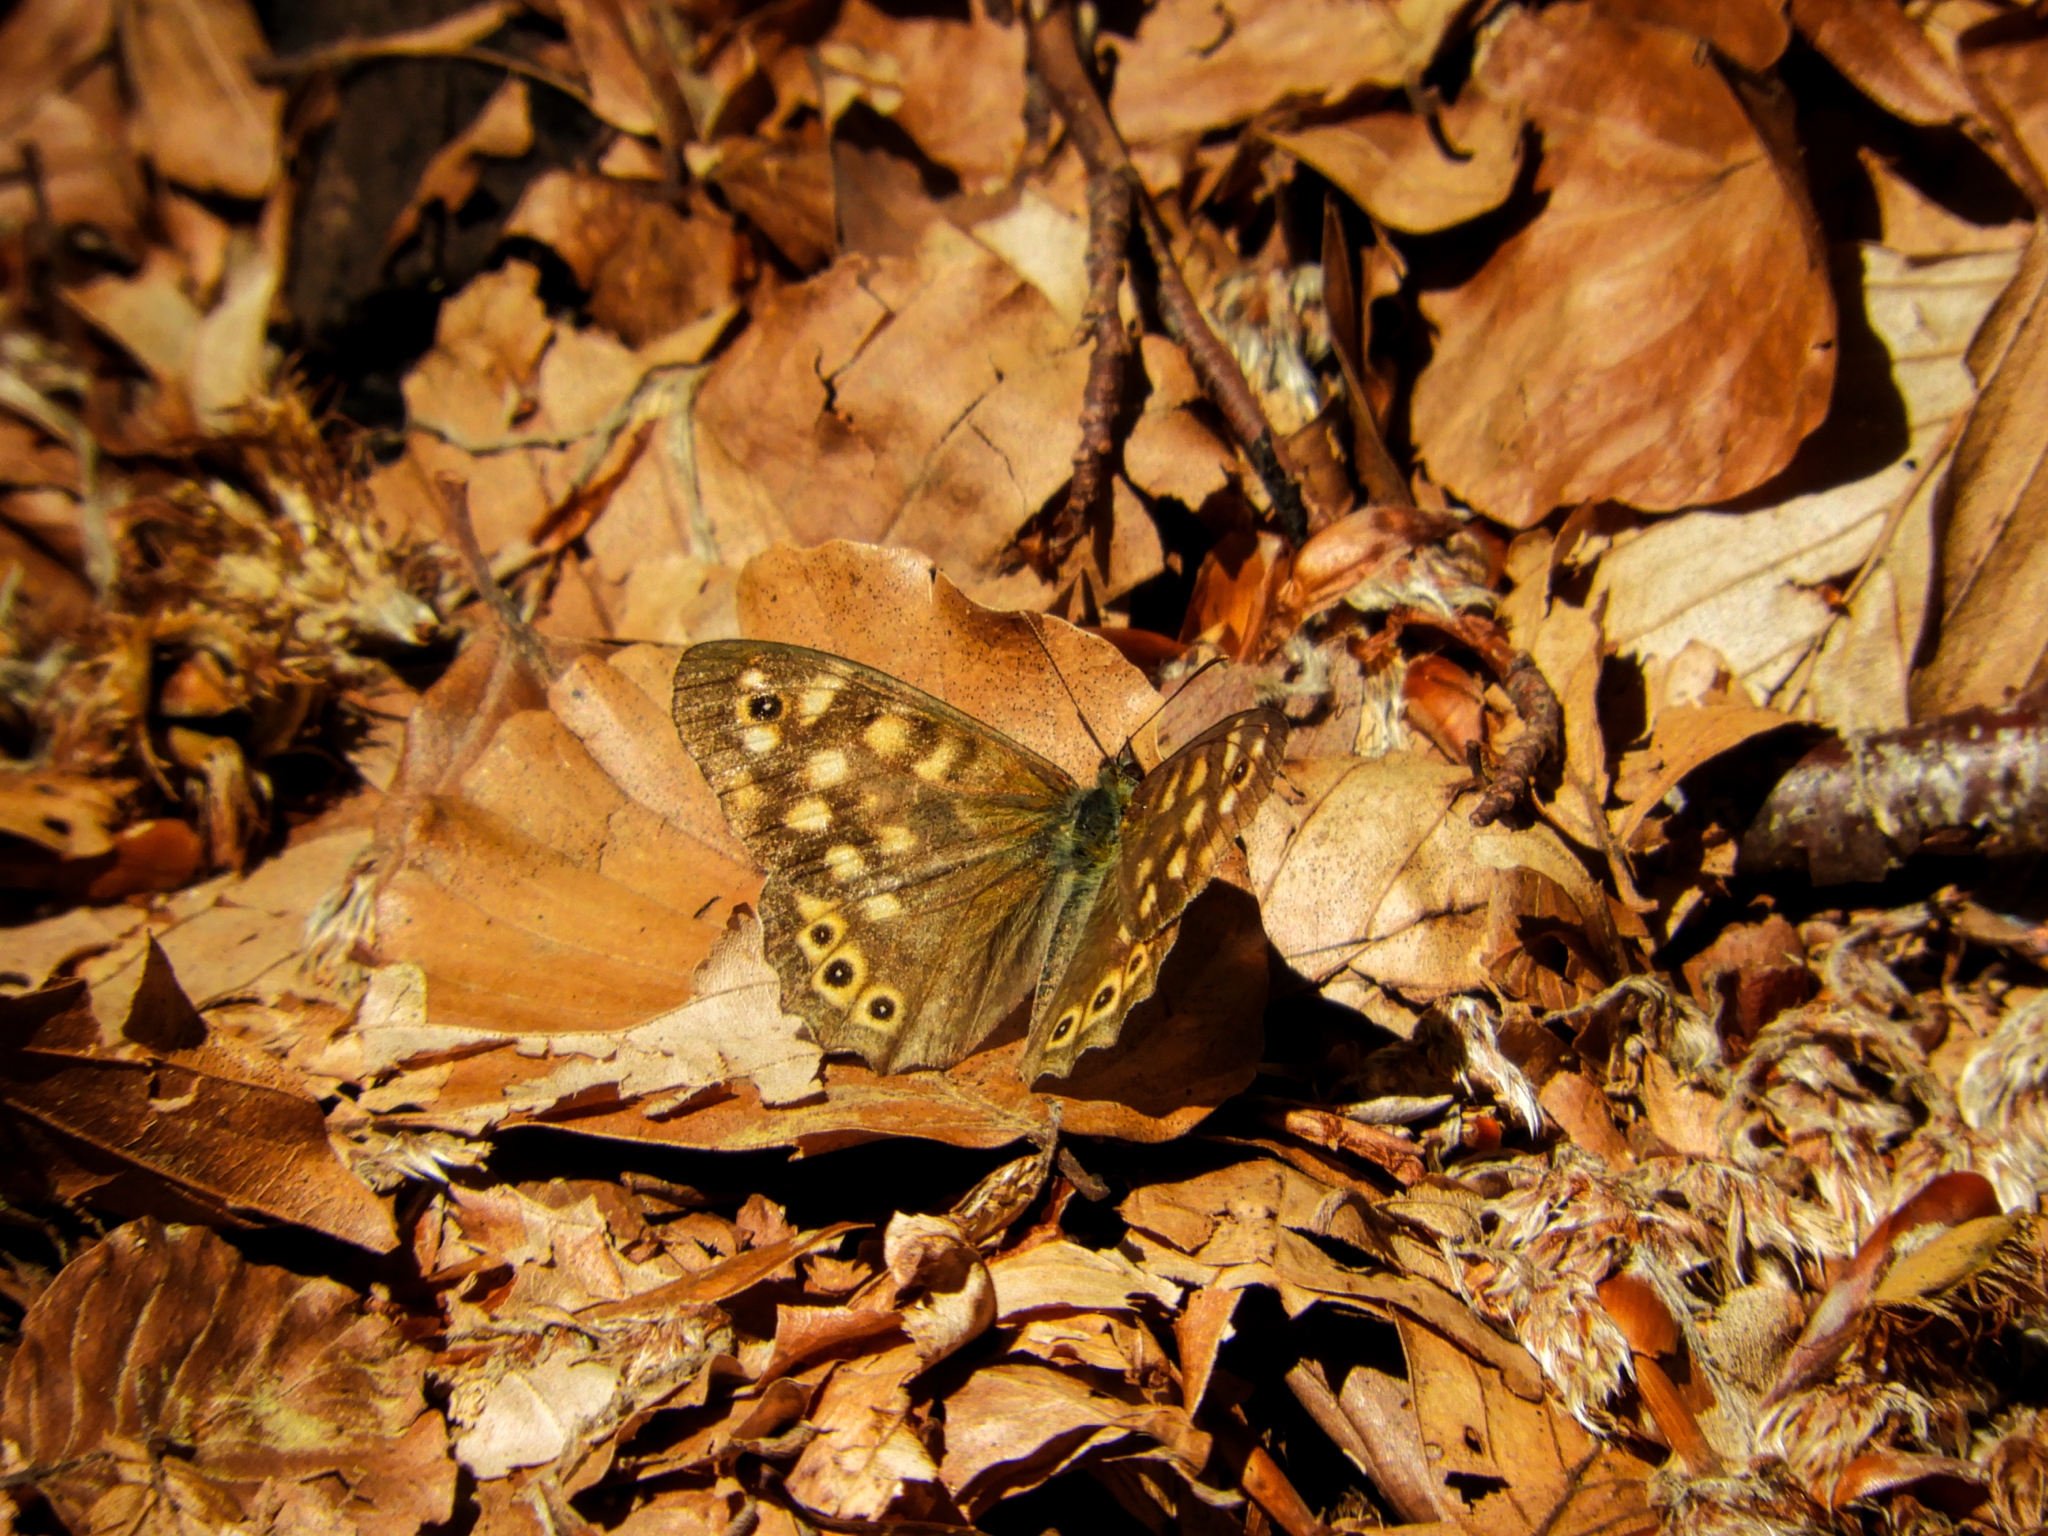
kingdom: Animalia
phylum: Arthropoda
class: Insecta
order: Lepidoptera
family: Nymphalidae
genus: Pararge
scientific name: Pararge aegeria
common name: Speckled wood
